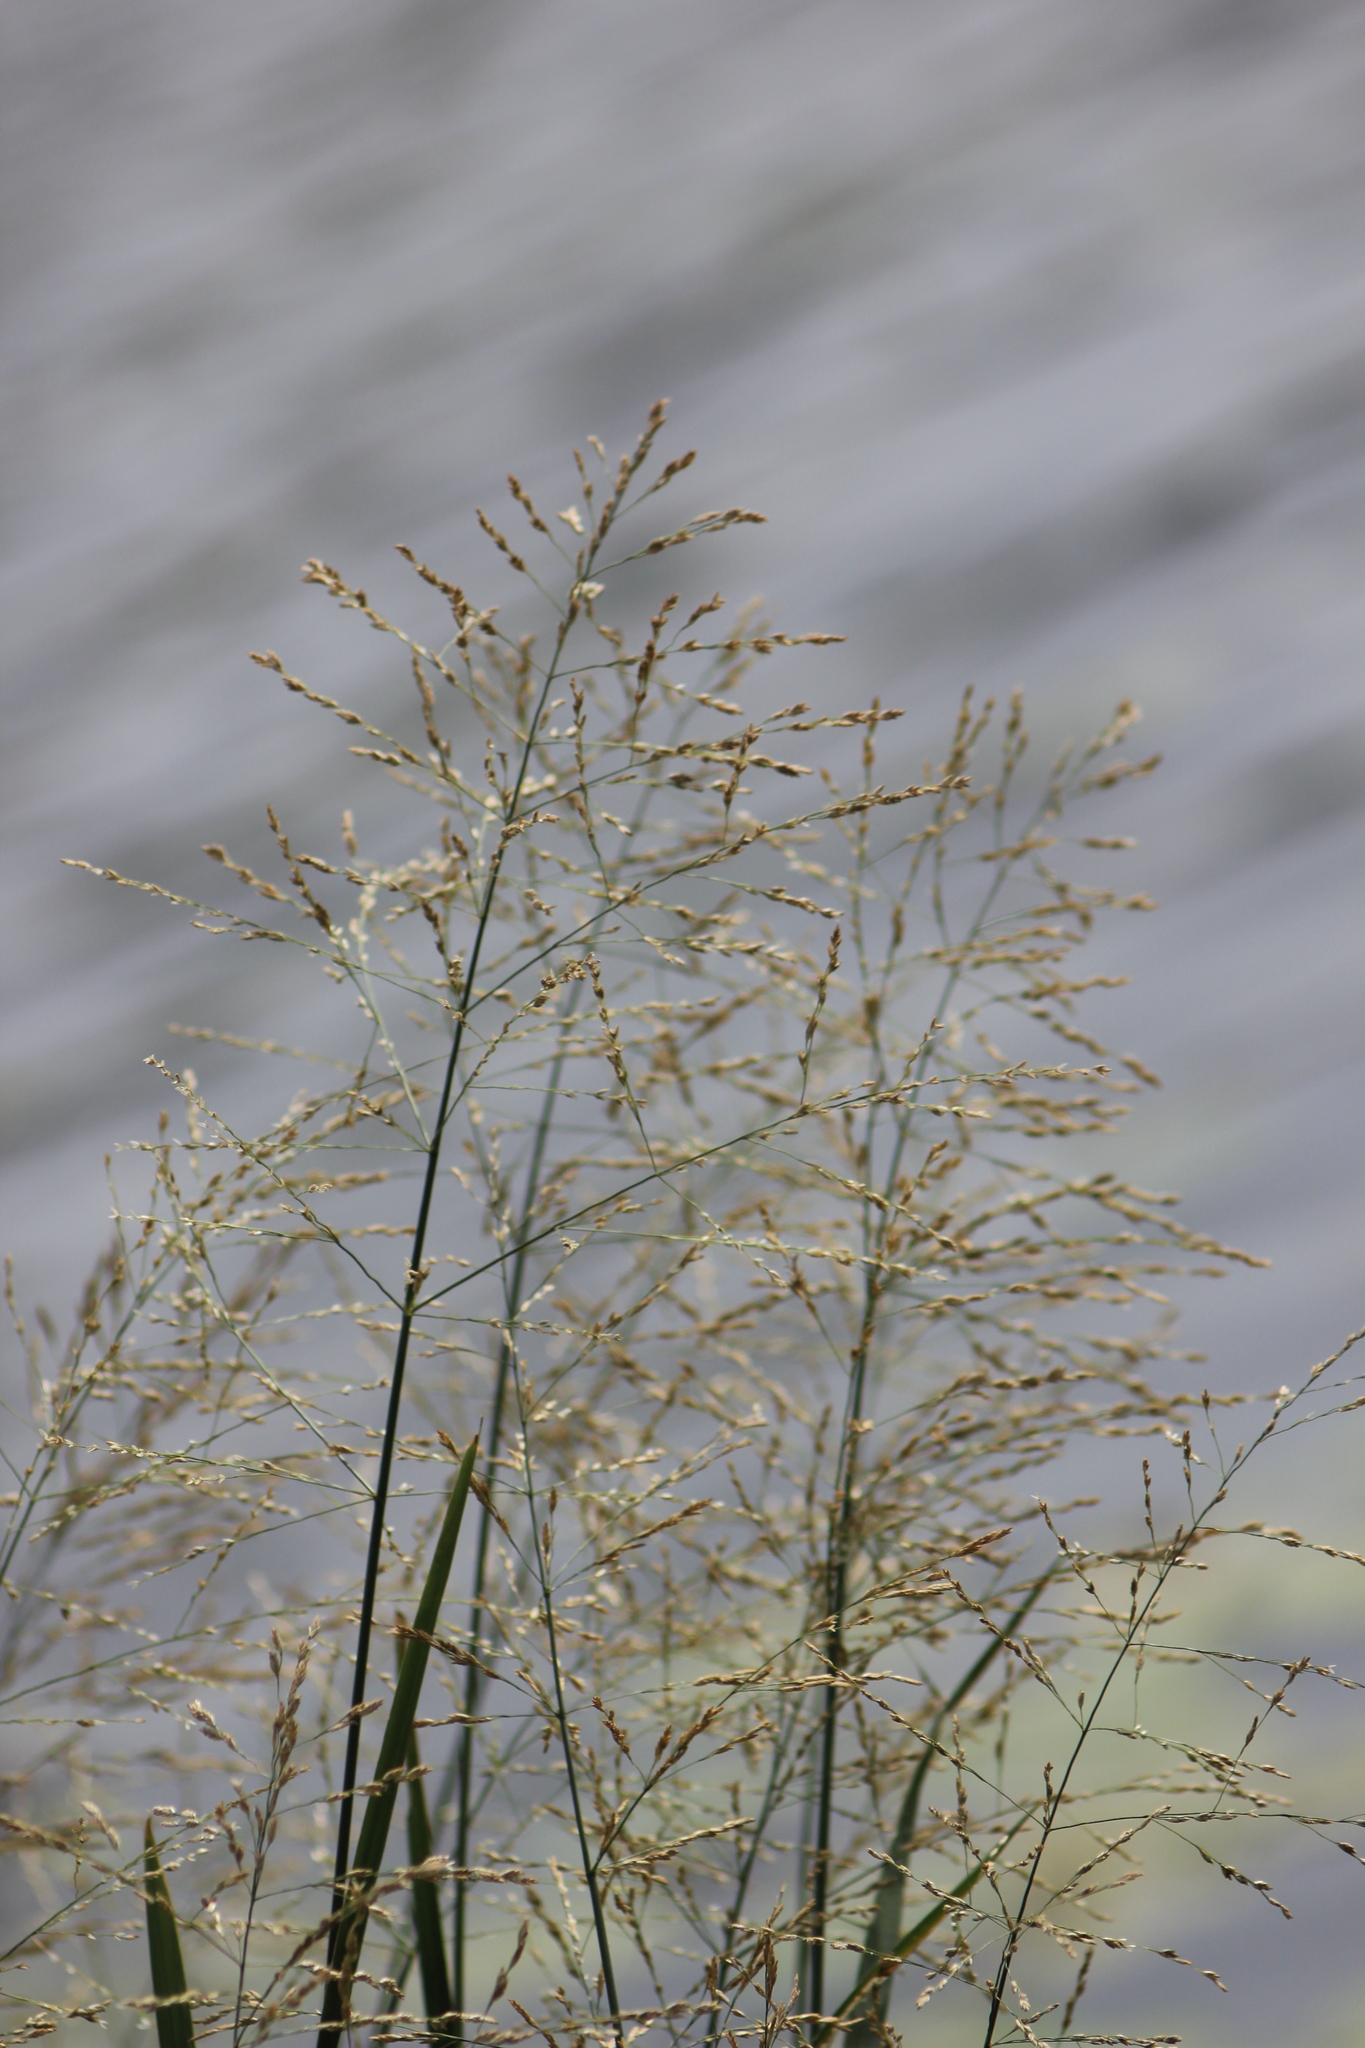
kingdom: Plantae
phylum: Tracheophyta
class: Liliopsida
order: Poales
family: Poaceae
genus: Glyceria
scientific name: Glyceria maxima
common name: Reed mannagrass
